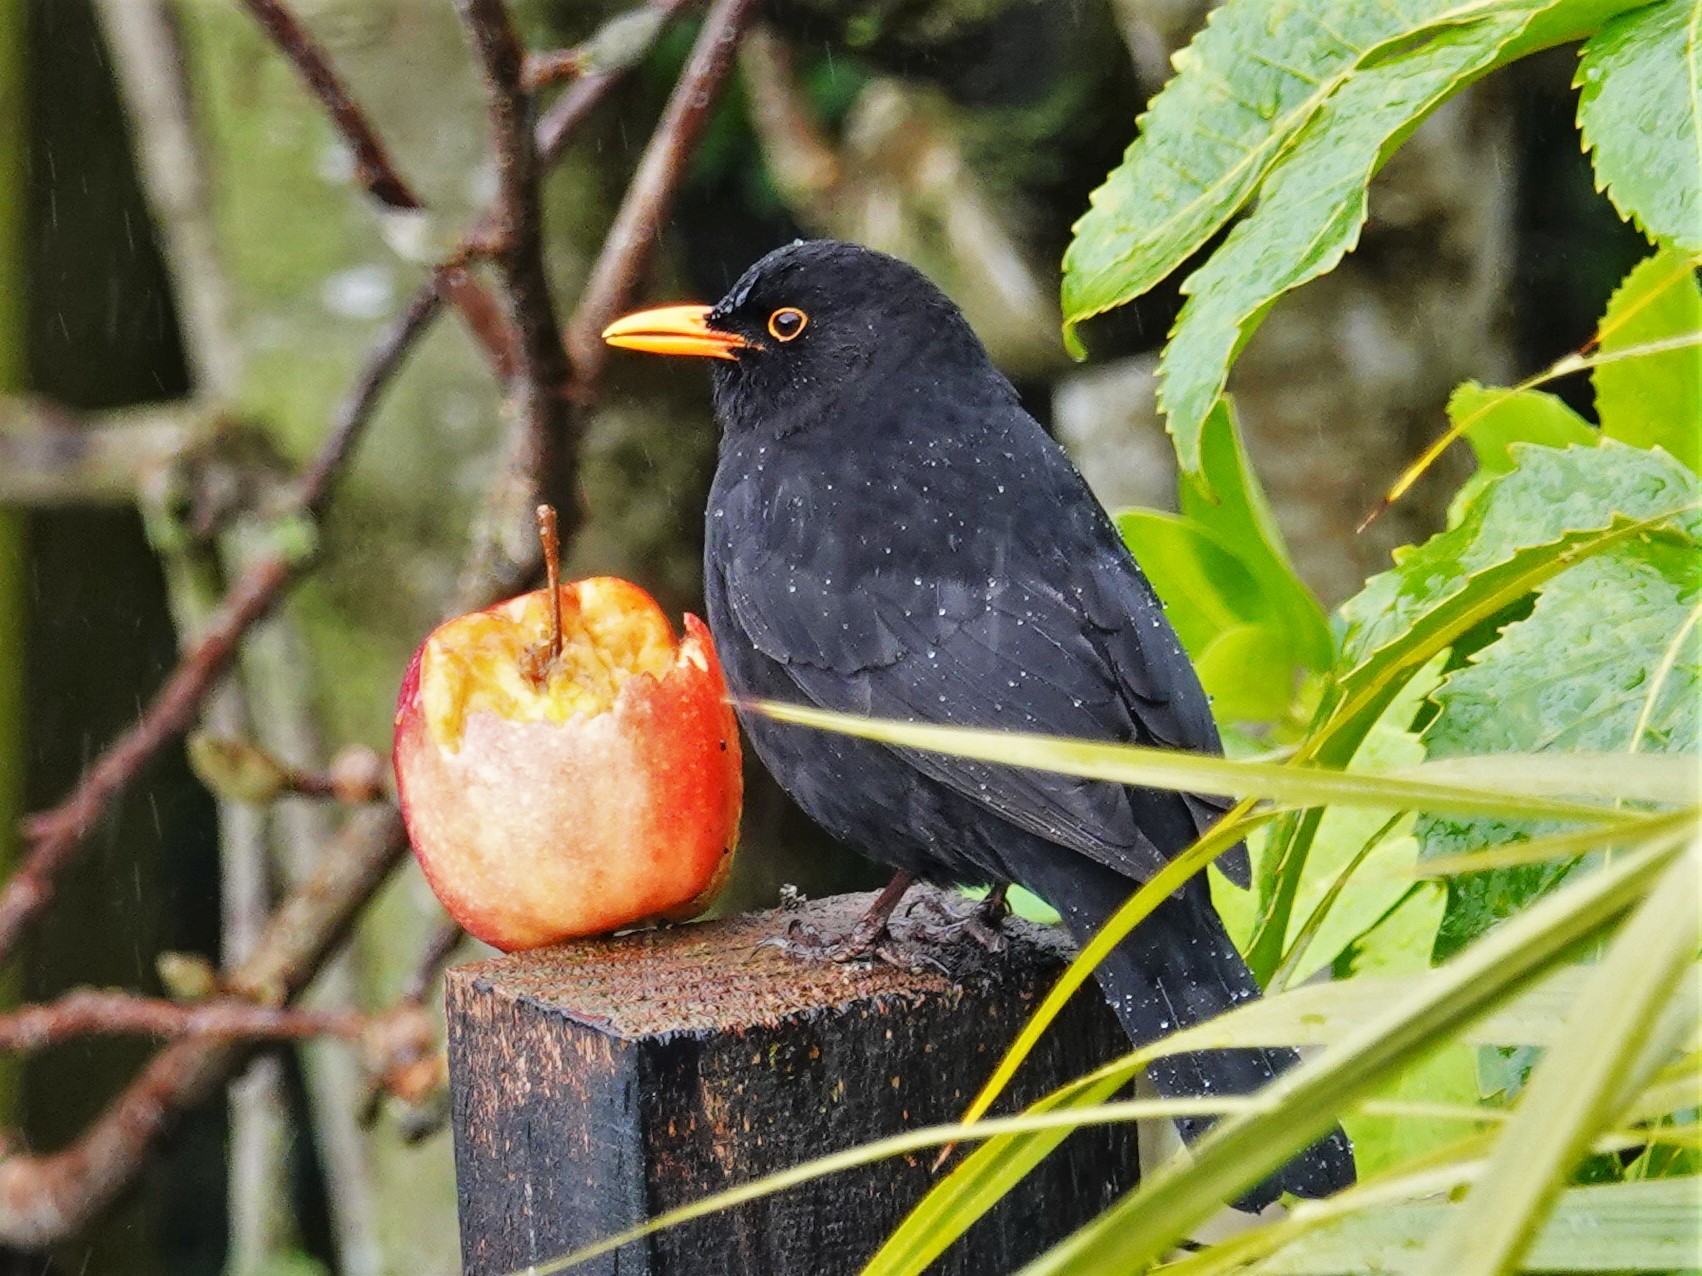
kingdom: Animalia
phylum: Chordata
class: Aves
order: Passeriformes
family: Turdidae
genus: Turdus
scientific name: Turdus merula
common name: Common blackbird
